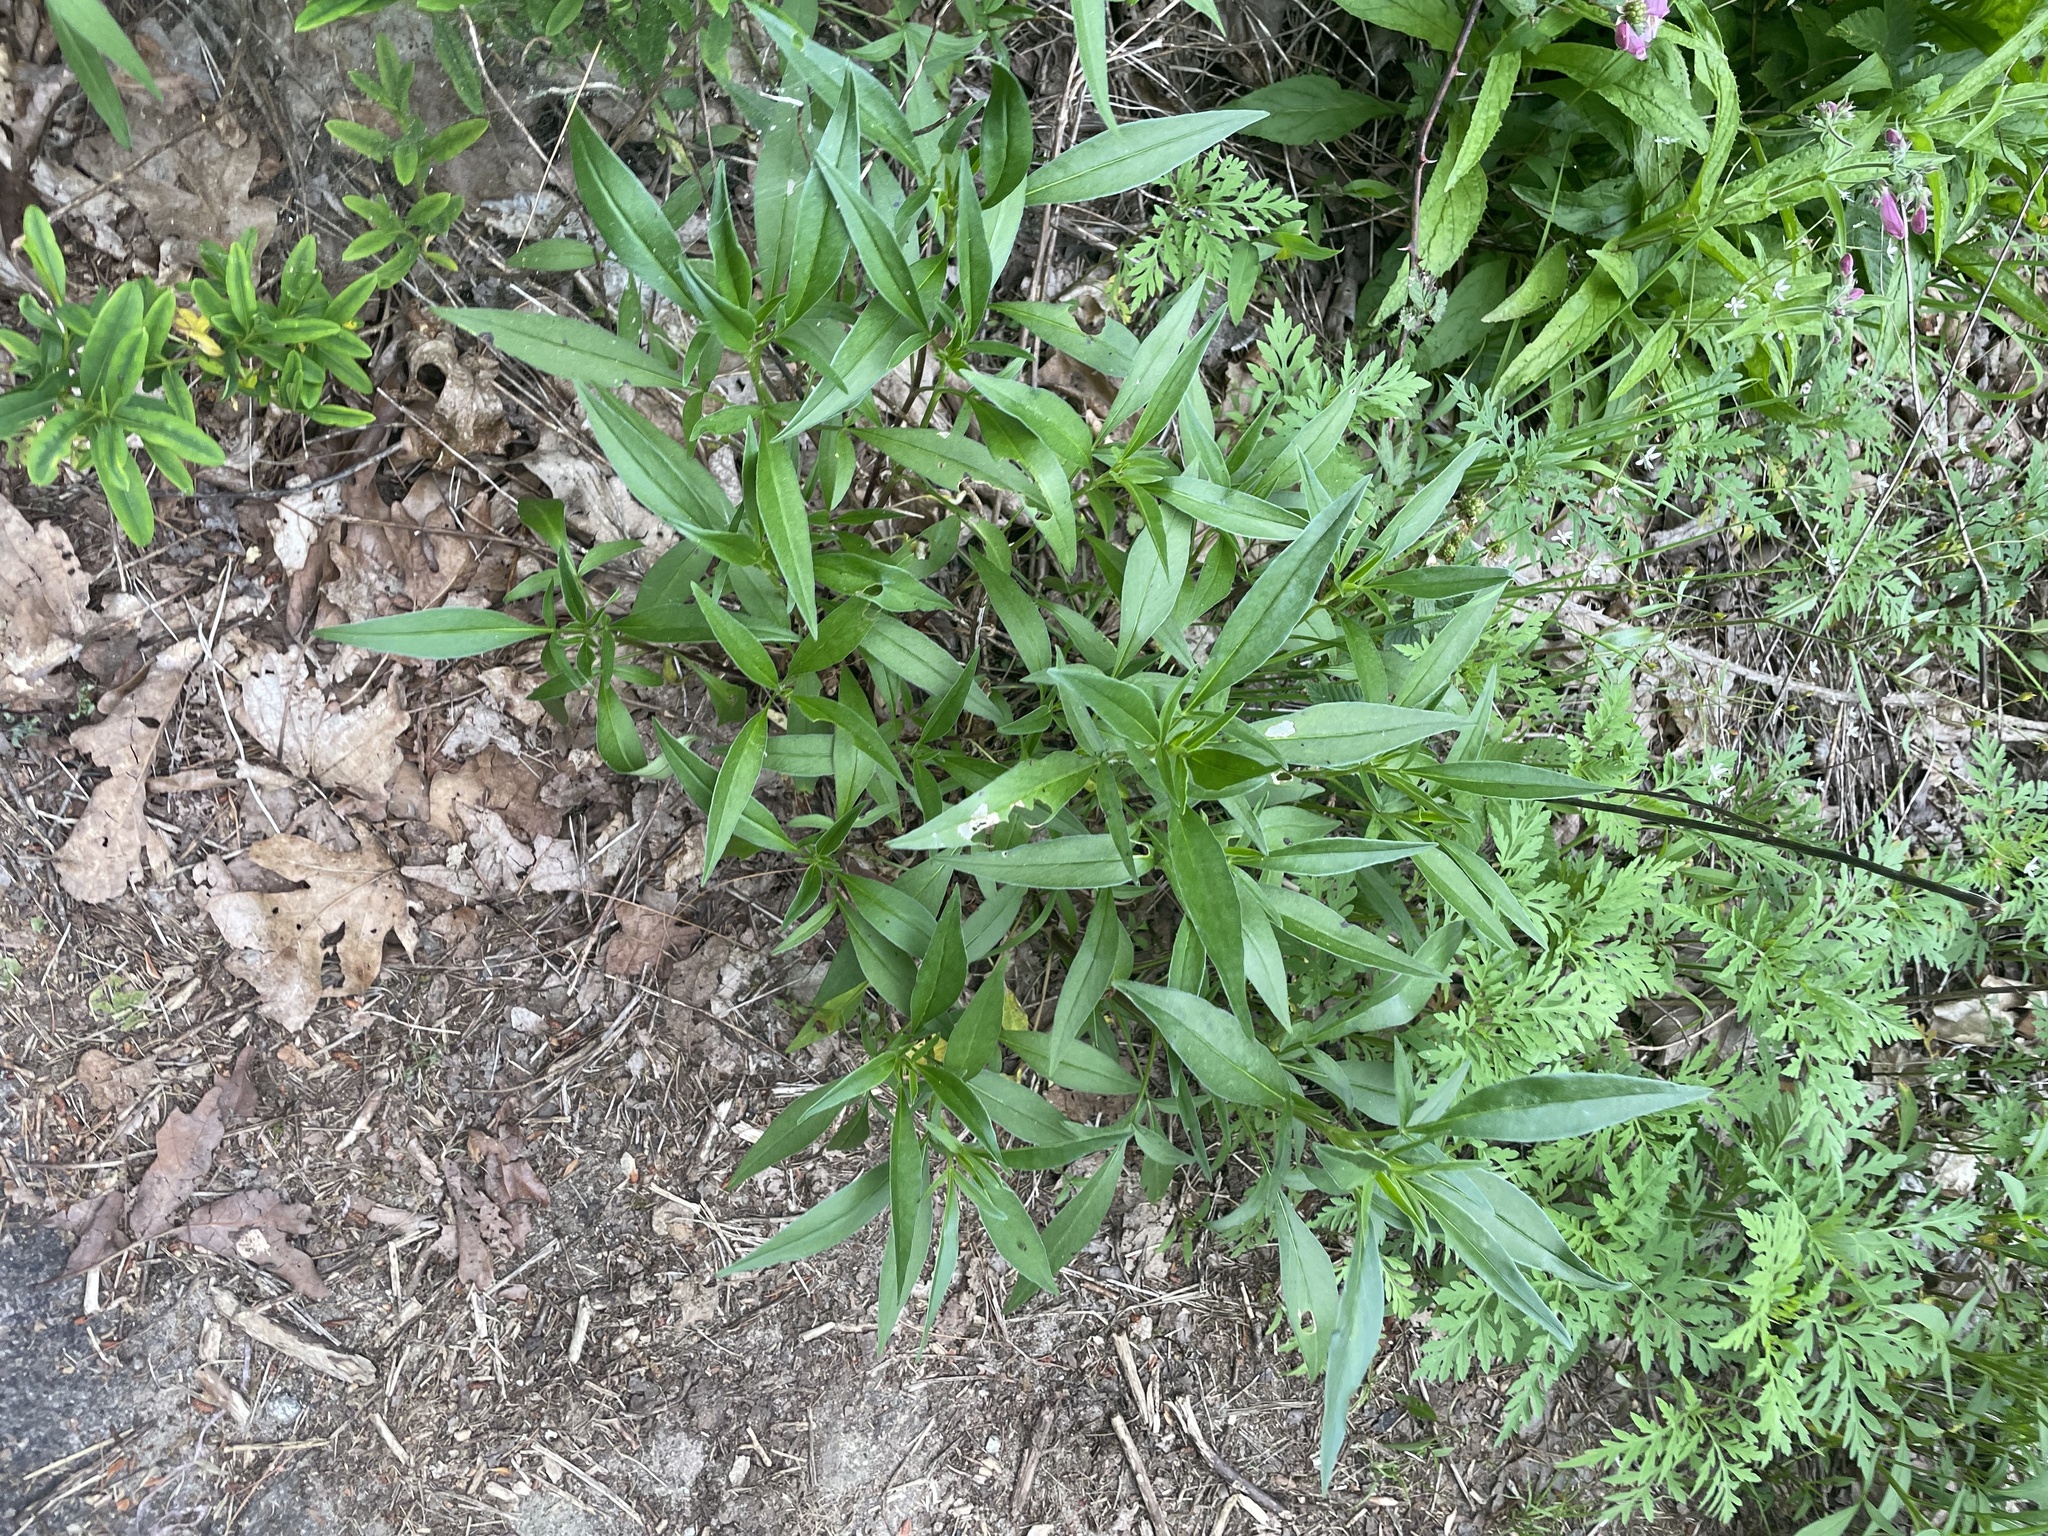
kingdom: Plantae
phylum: Tracheophyta
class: Magnoliopsida
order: Asterales
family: Asteraceae
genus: Coreopsis
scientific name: Coreopsis tripteris
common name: Tall coreopsis
